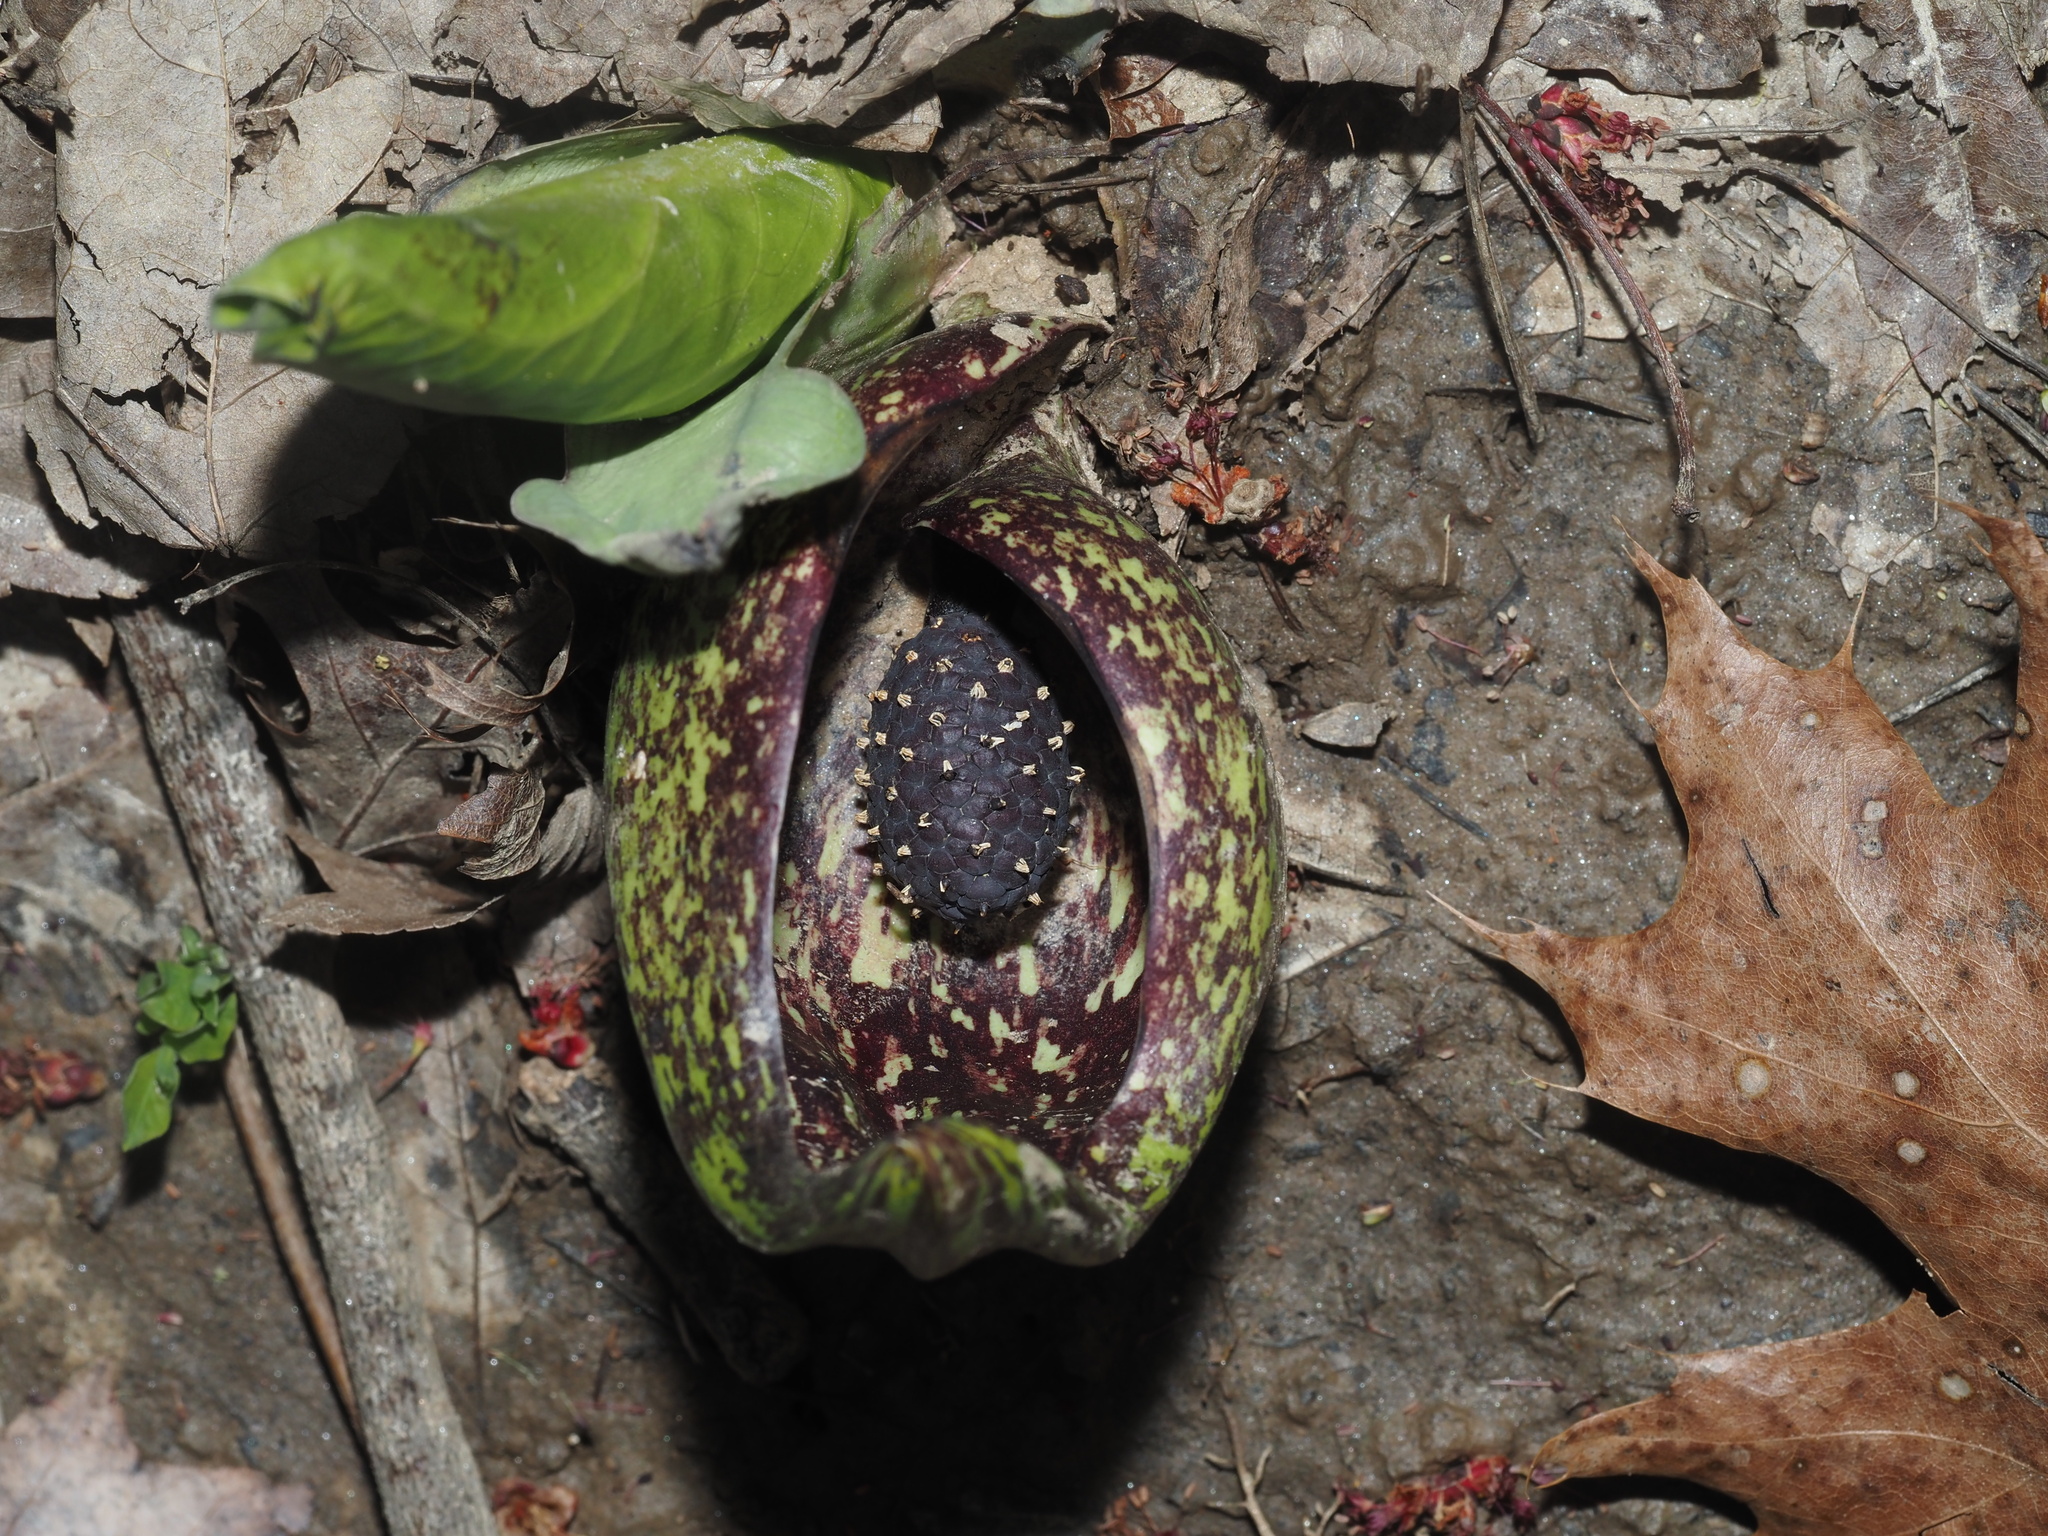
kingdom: Plantae
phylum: Tracheophyta
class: Liliopsida
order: Alismatales
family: Araceae
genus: Symplocarpus
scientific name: Symplocarpus foetidus
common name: Eastern skunk cabbage
